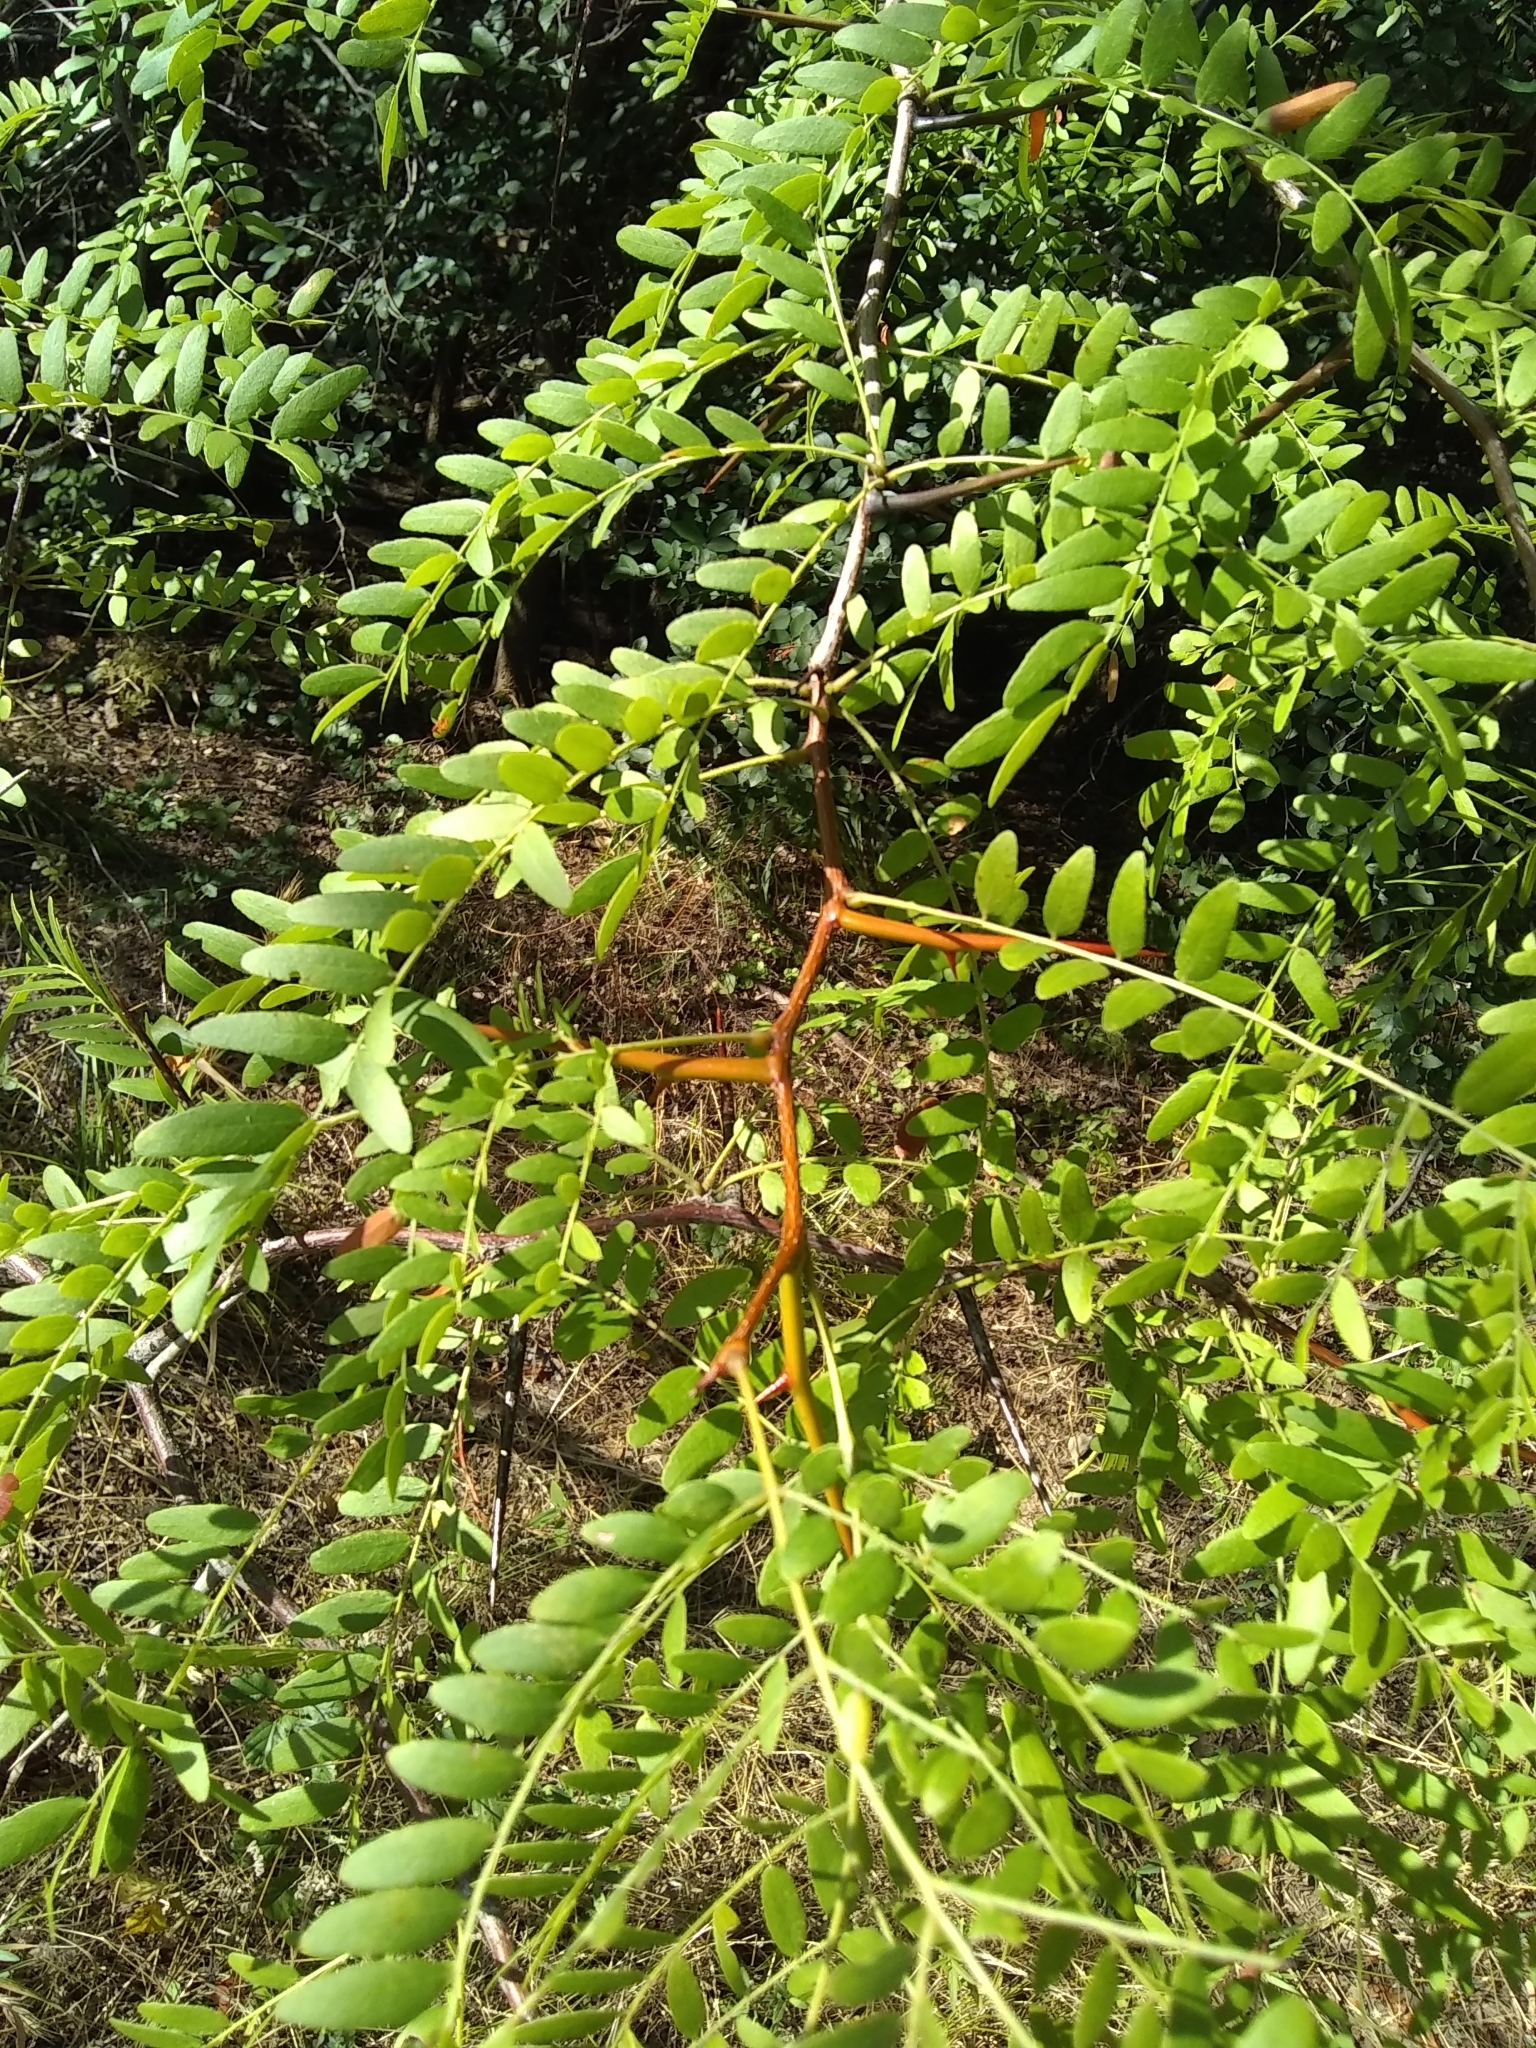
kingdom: Plantae
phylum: Tracheophyta
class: Magnoliopsida
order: Fabales
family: Fabaceae
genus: Gleditsia
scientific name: Gleditsia triacanthos
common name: Common honeylocust
